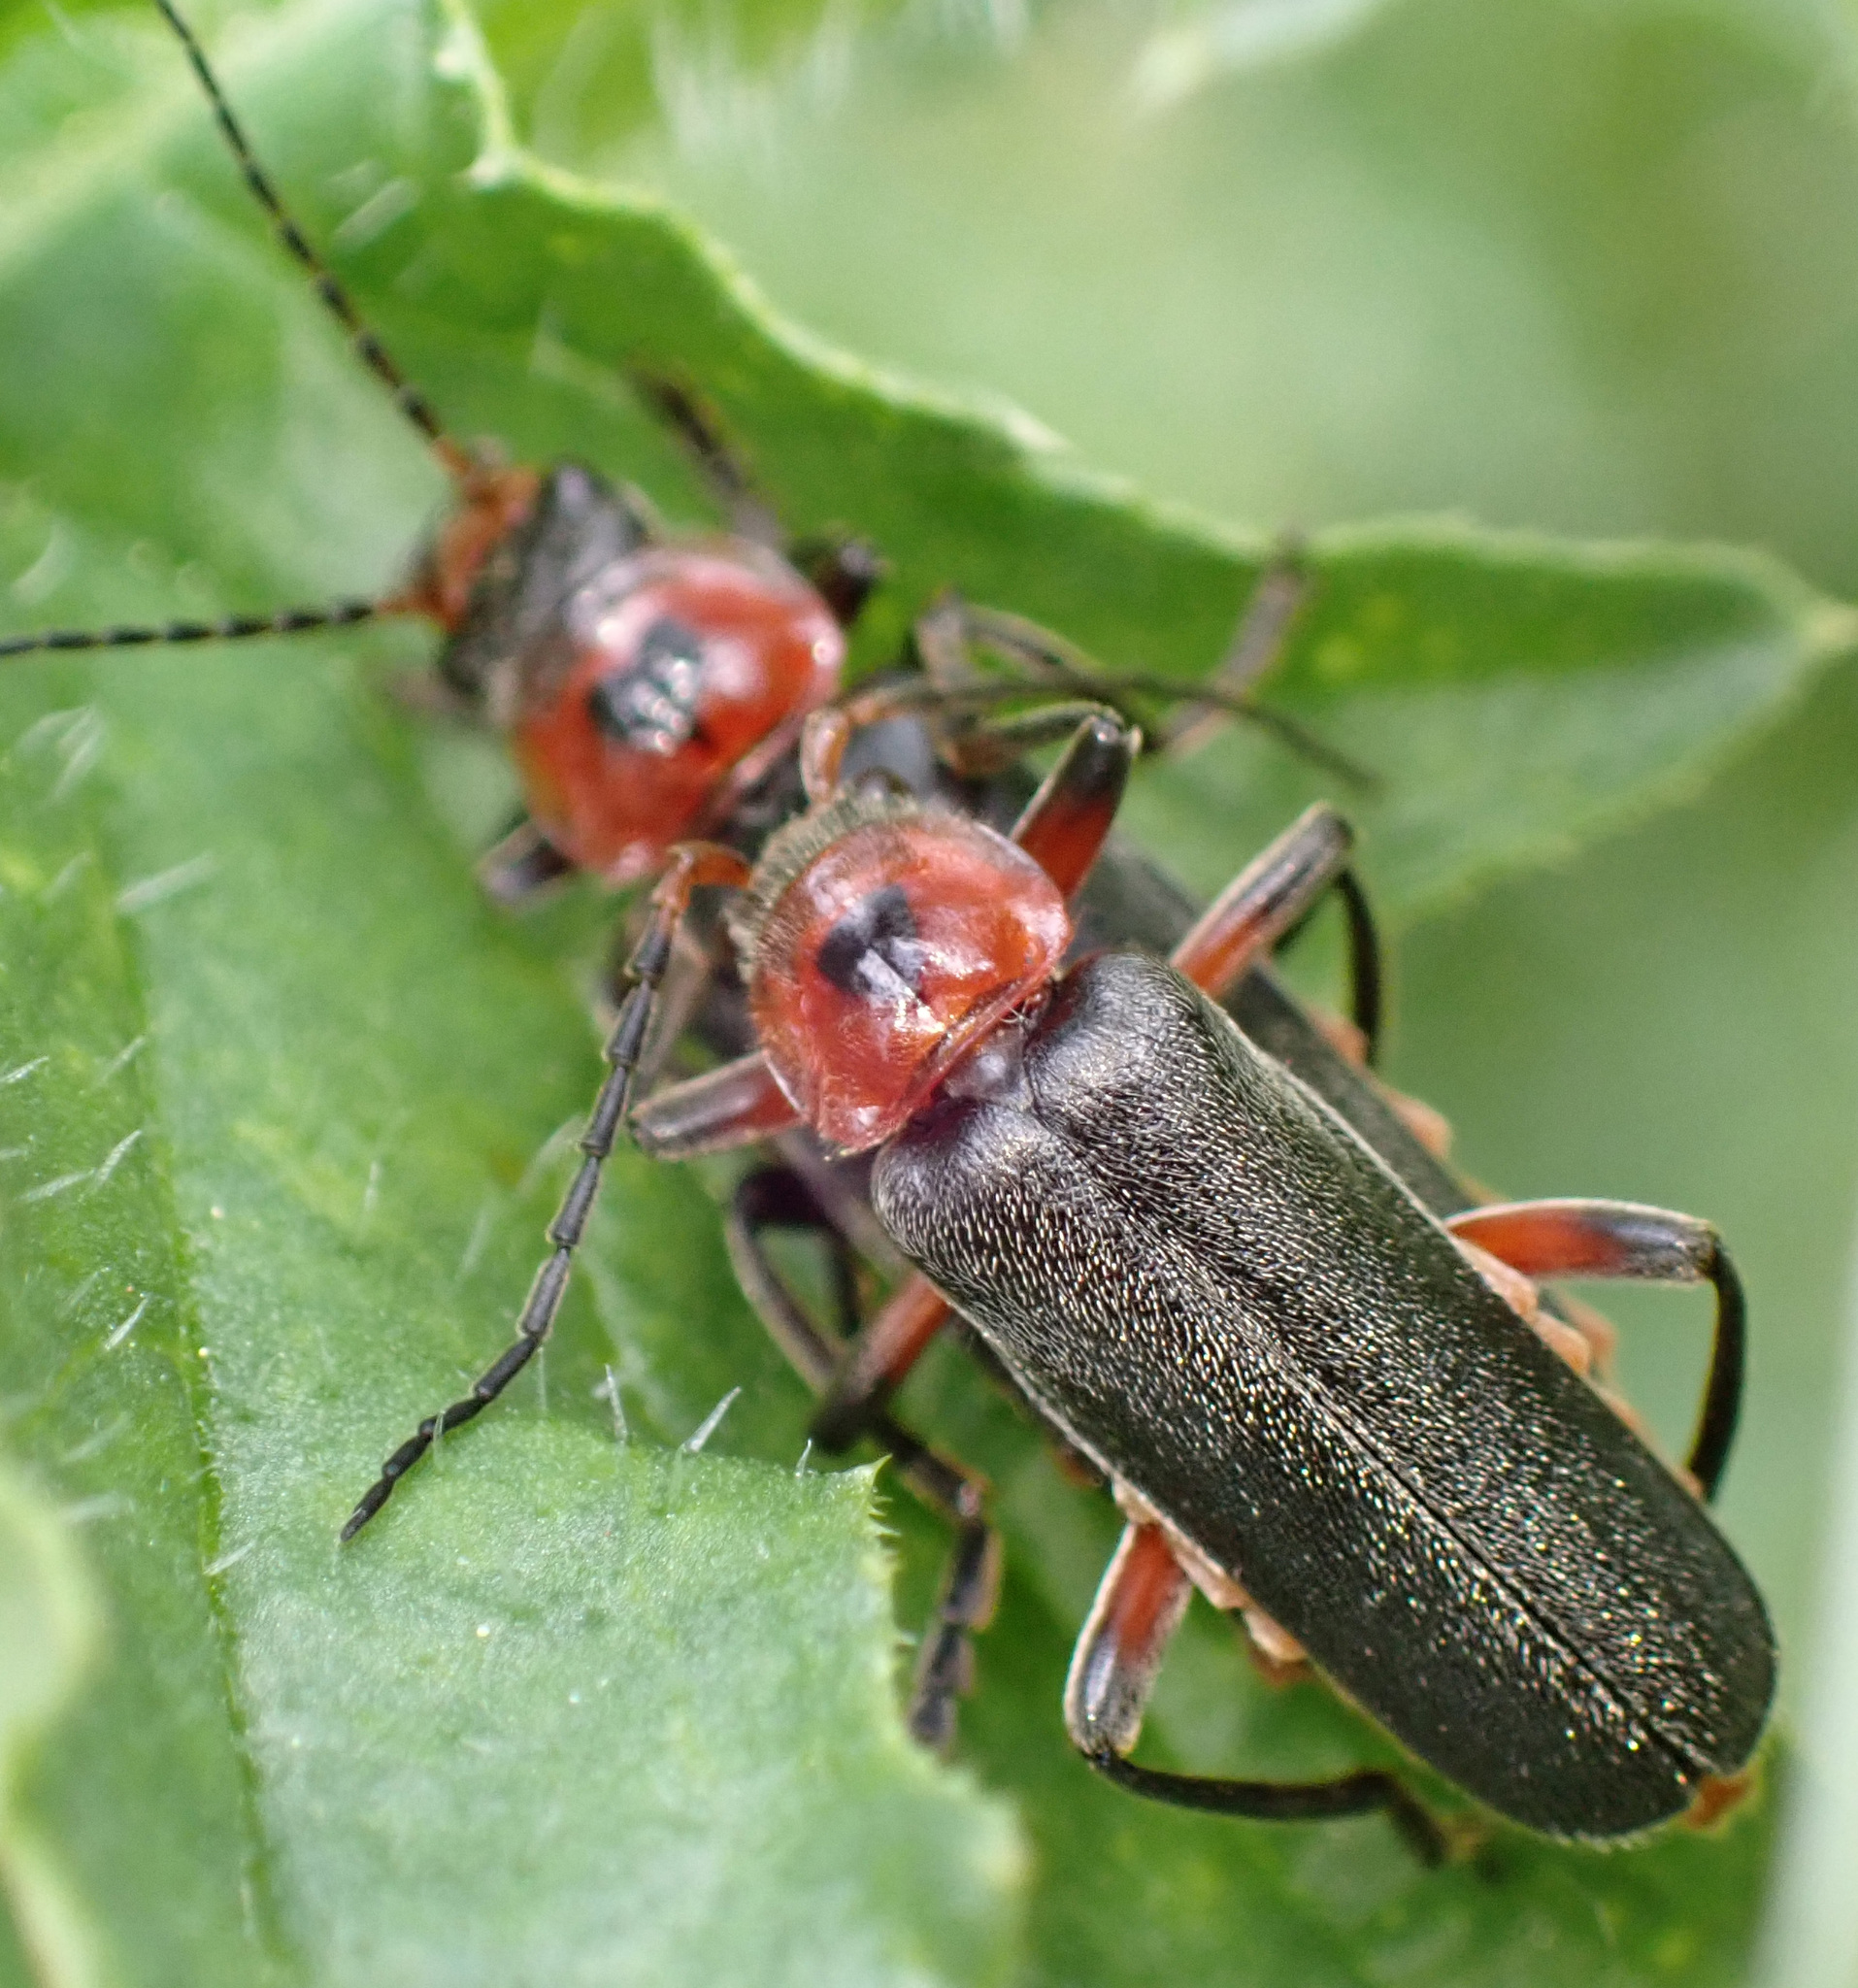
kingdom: Animalia
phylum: Arthropoda
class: Insecta
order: Coleoptera
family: Cantharidae
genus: Cantharis
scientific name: Cantharis rustica
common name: Soldier beetle
